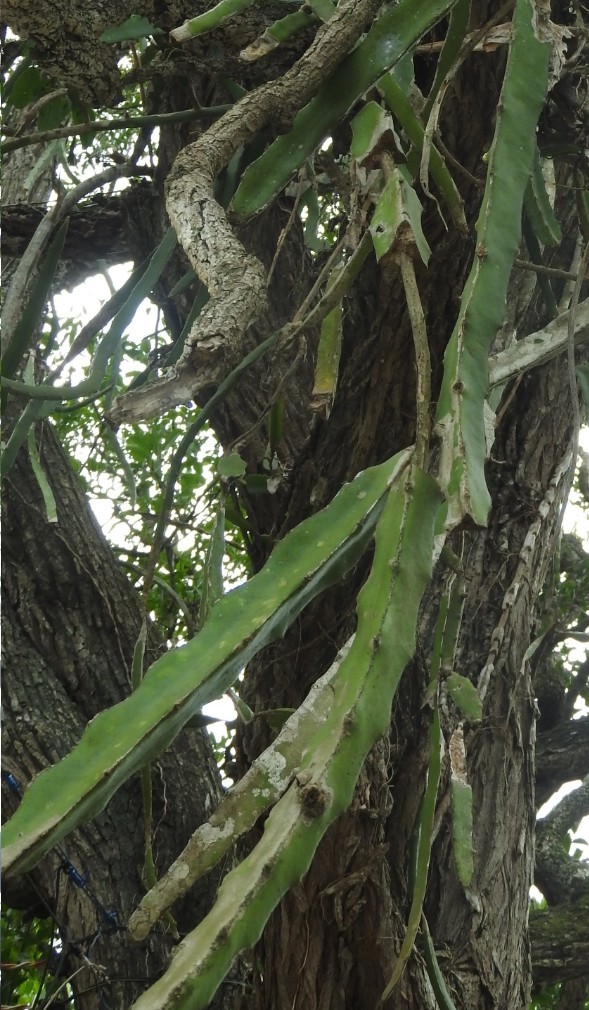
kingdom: Plantae
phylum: Tracheophyta
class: Magnoliopsida
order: Caryophyllales
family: Cactaceae
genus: Selenicereus
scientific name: Selenicereus undatus
